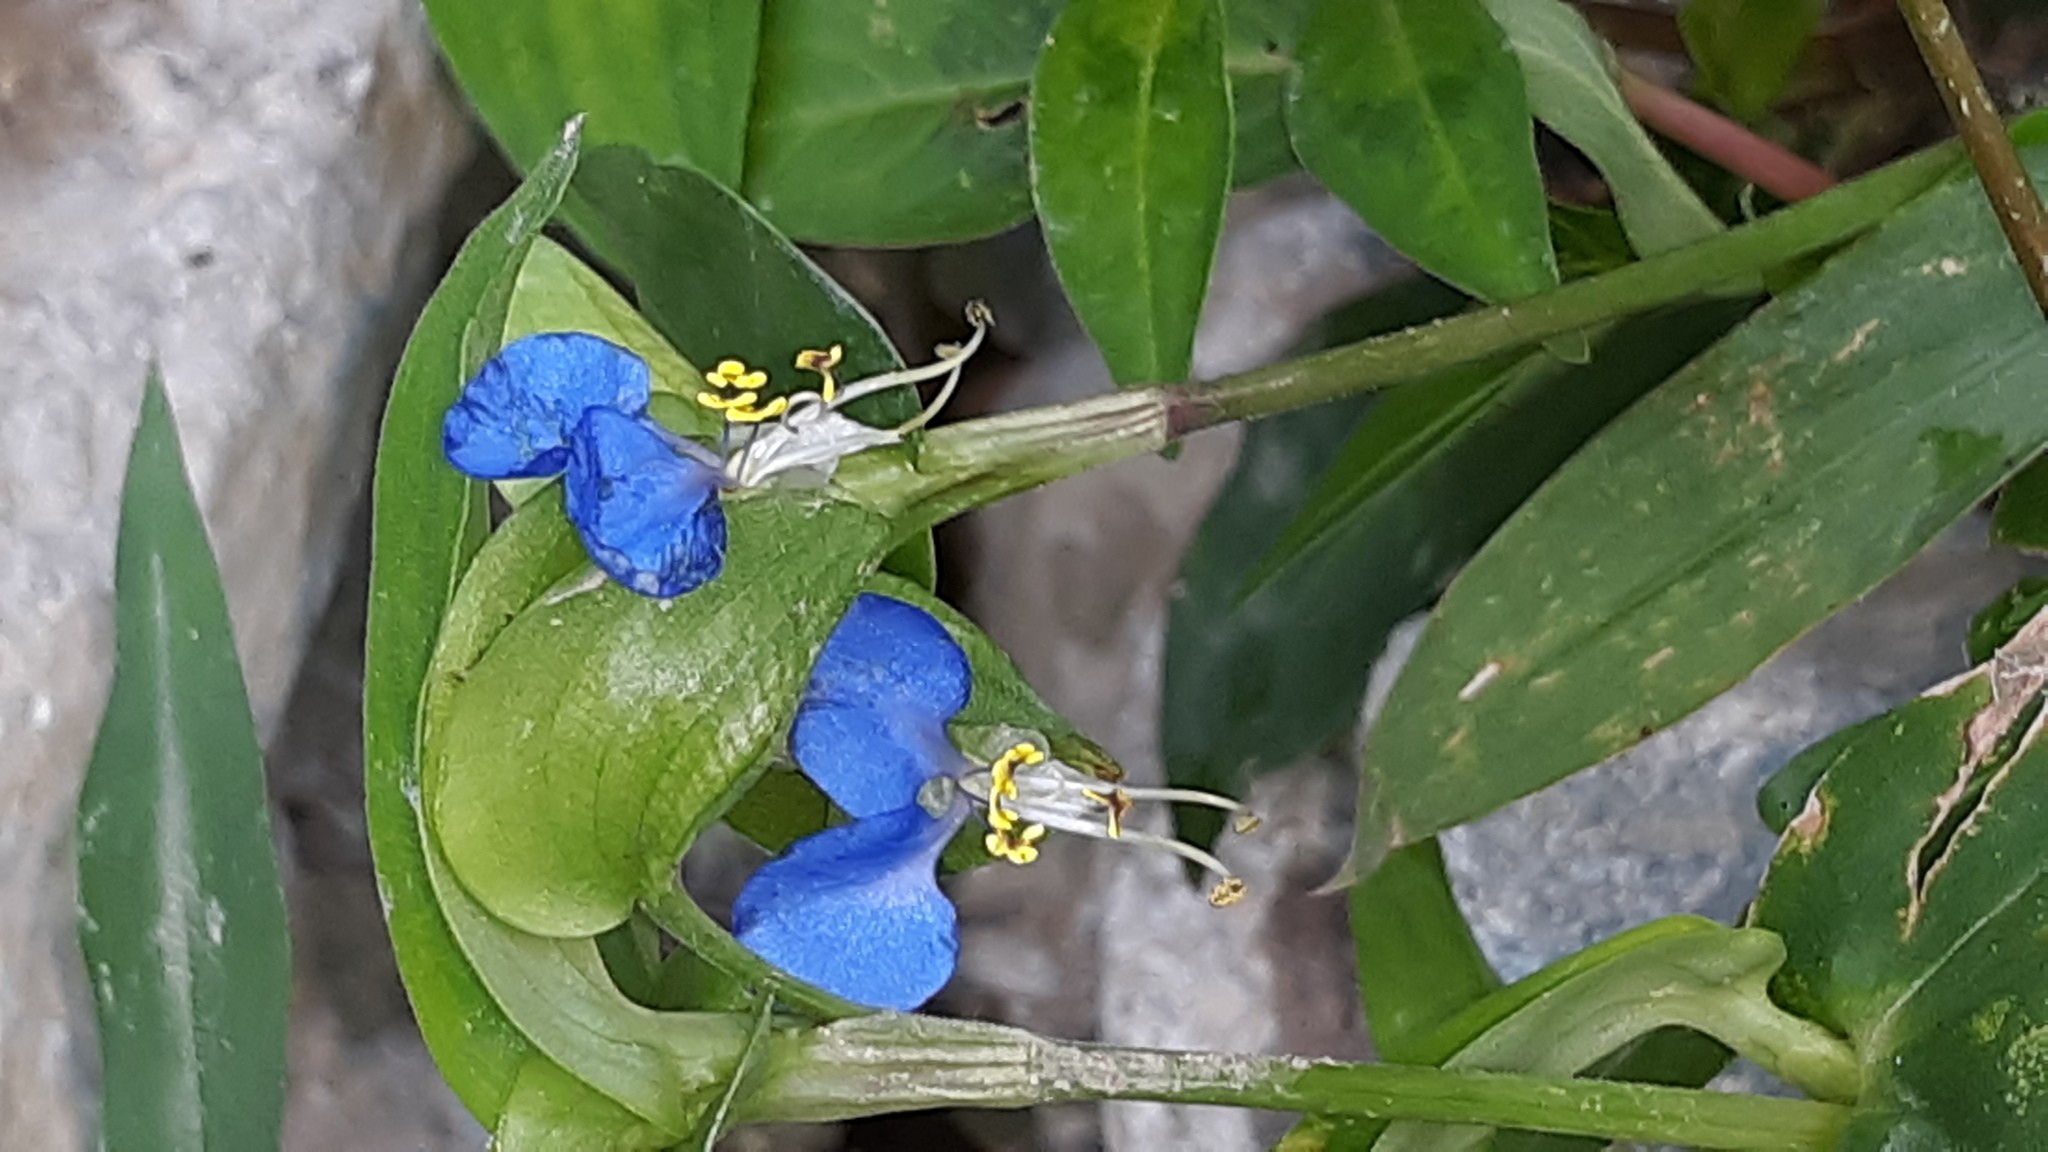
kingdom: Plantae
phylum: Tracheophyta
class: Liliopsida
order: Commelinales
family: Commelinaceae
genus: Commelina
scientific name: Commelina communis
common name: Asiatic dayflower
